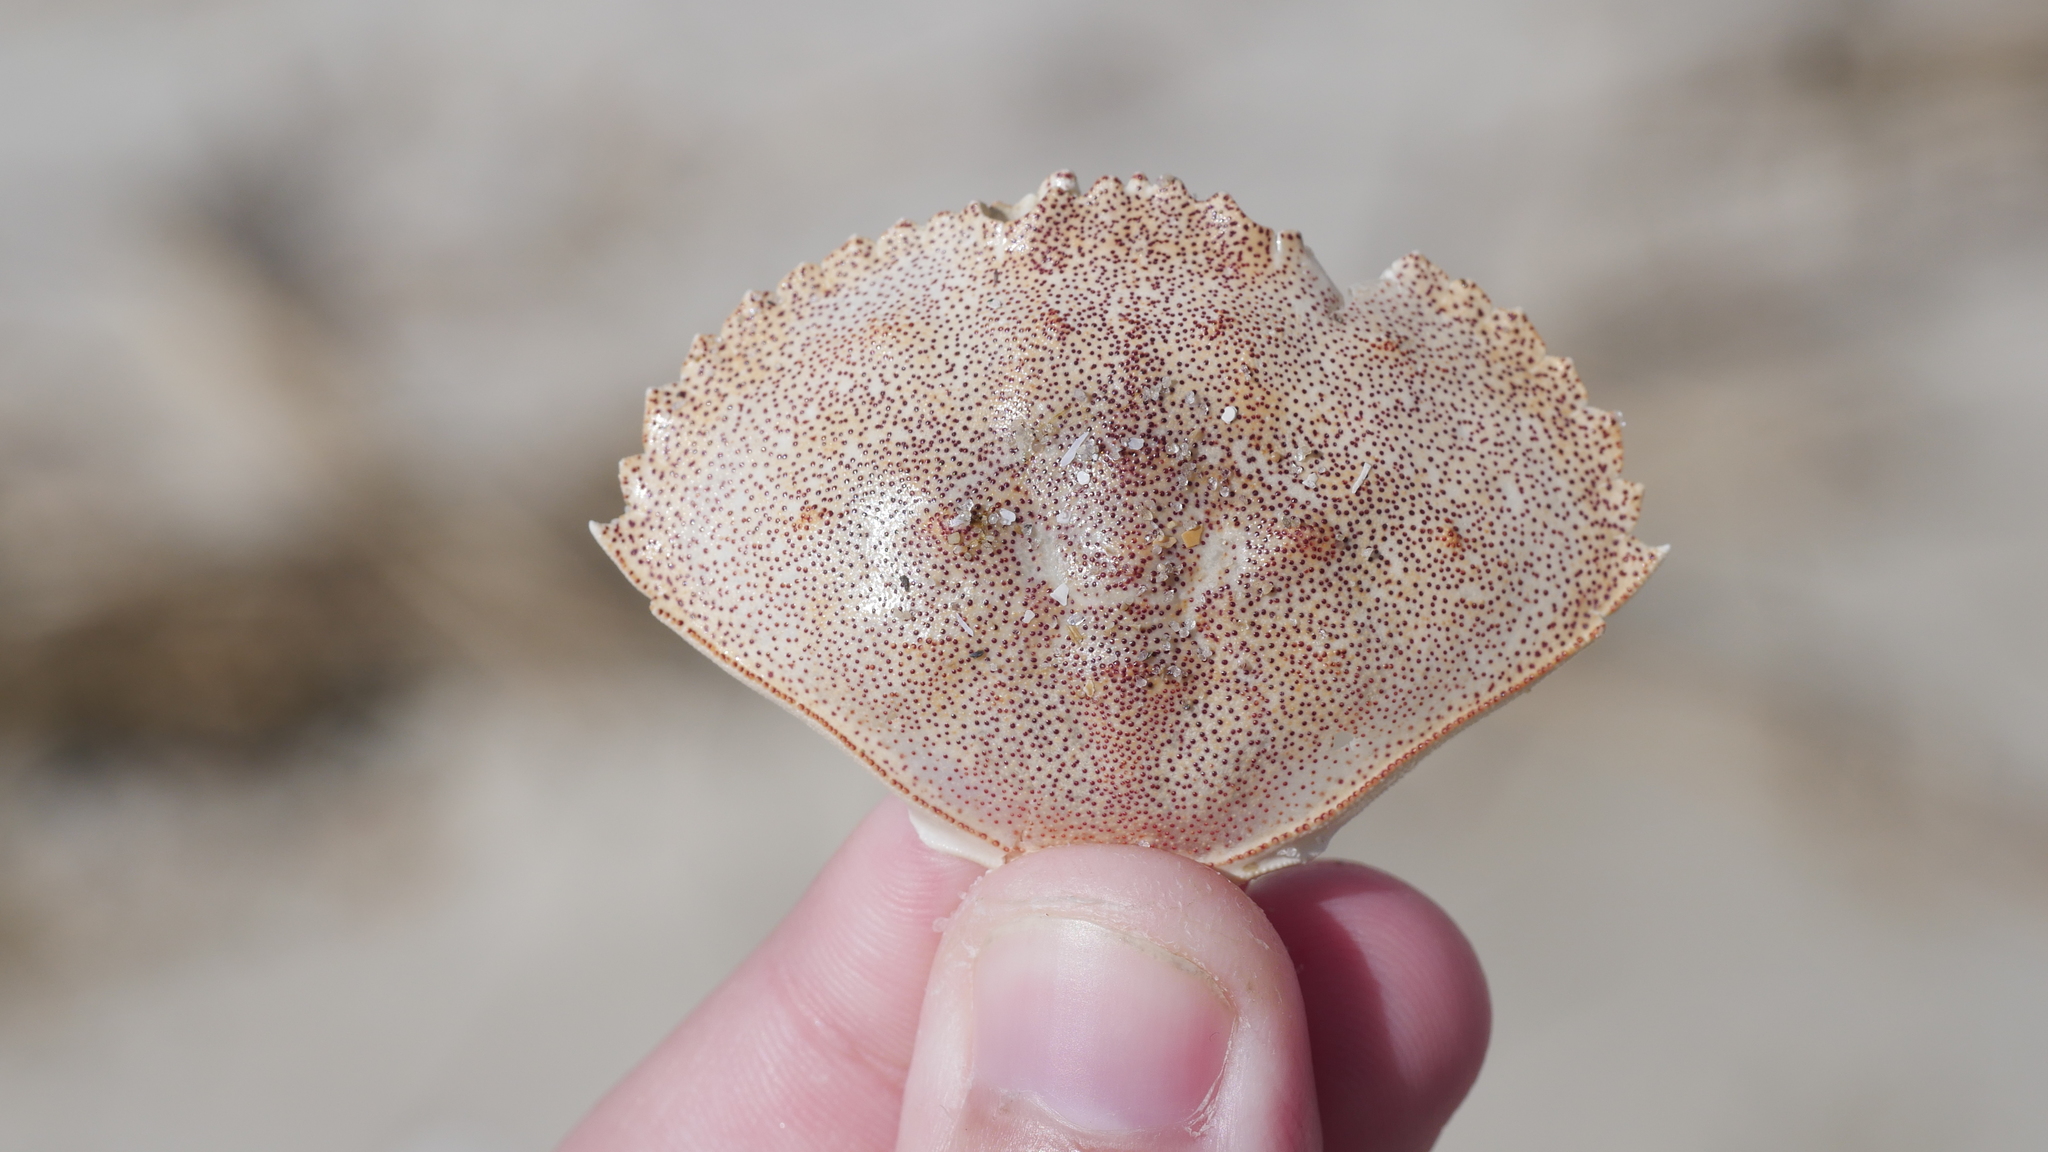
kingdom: Animalia
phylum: Arthropoda
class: Malacostraca
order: Decapoda
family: Cancridae
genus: Cancer
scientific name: Cancer irroratus
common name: Atlantic rock crab
